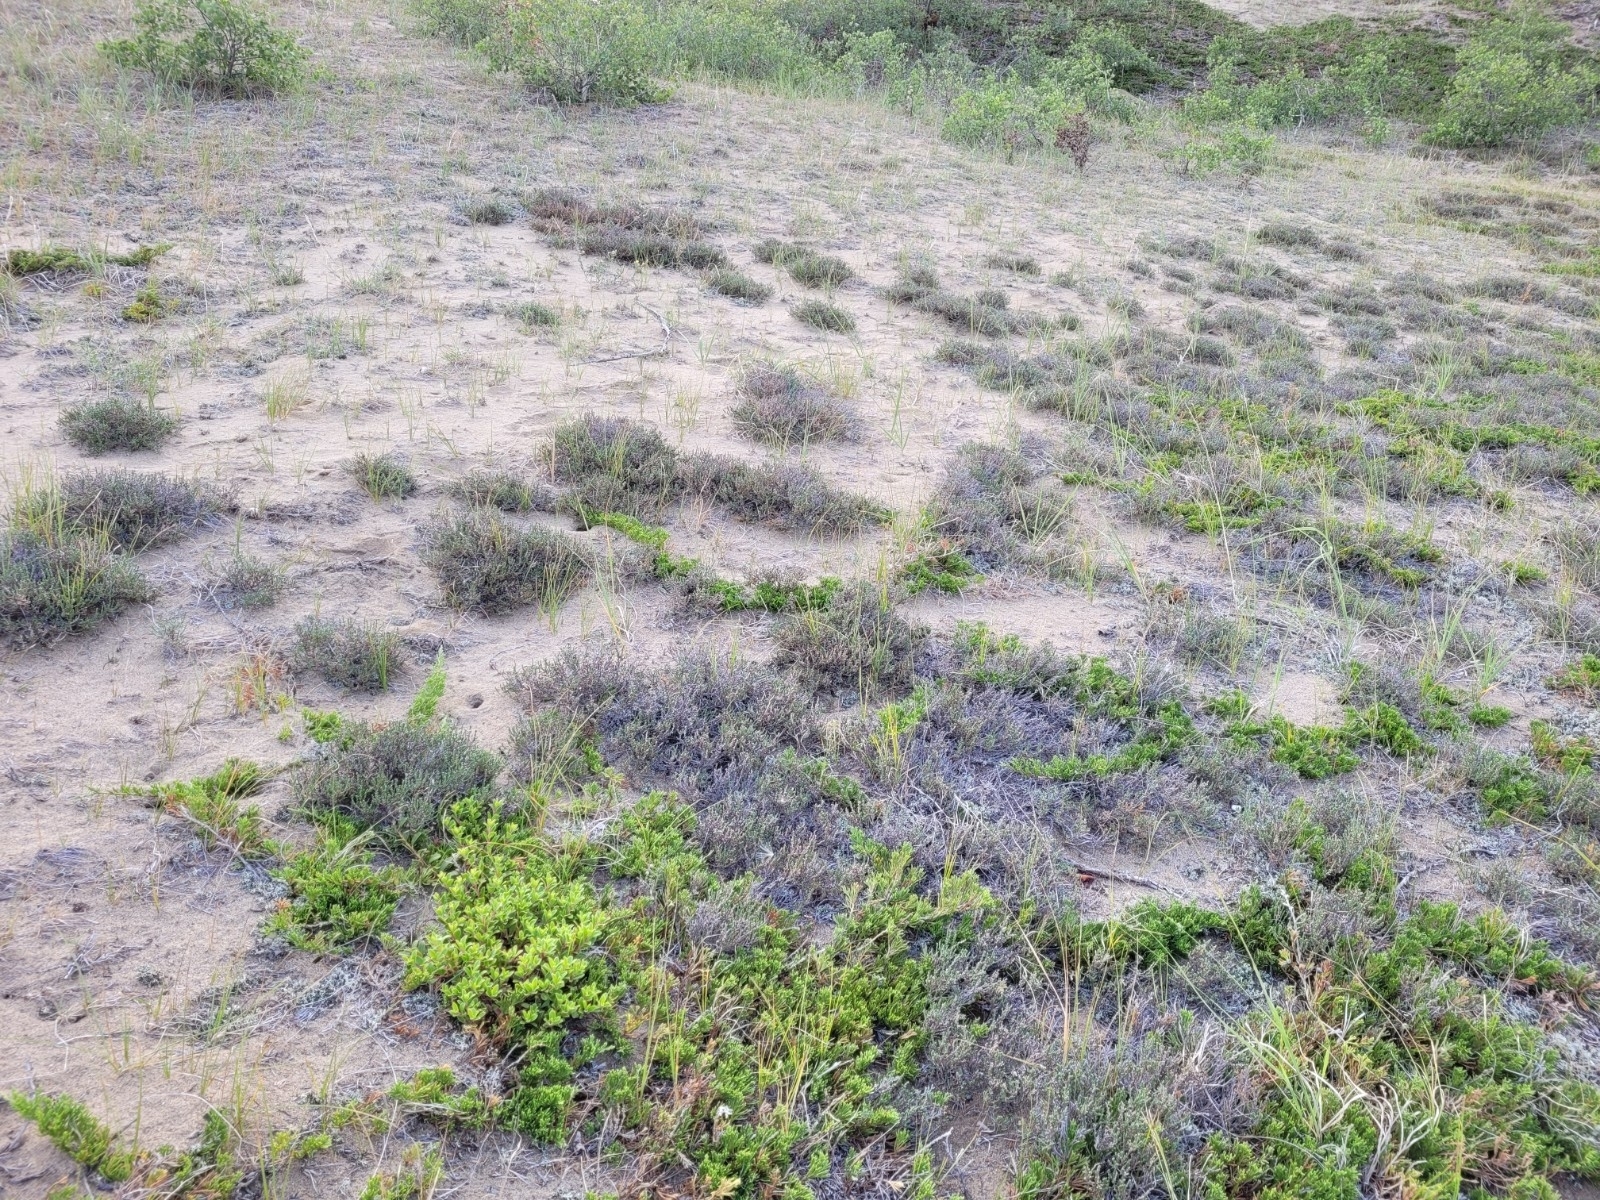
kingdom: Plantae
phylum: Tracheophyta
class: Magnoliopsida
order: Malvales
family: Cistaceae
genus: Hudsonia
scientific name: Hudsonia tomentosa
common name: Beach-heath
